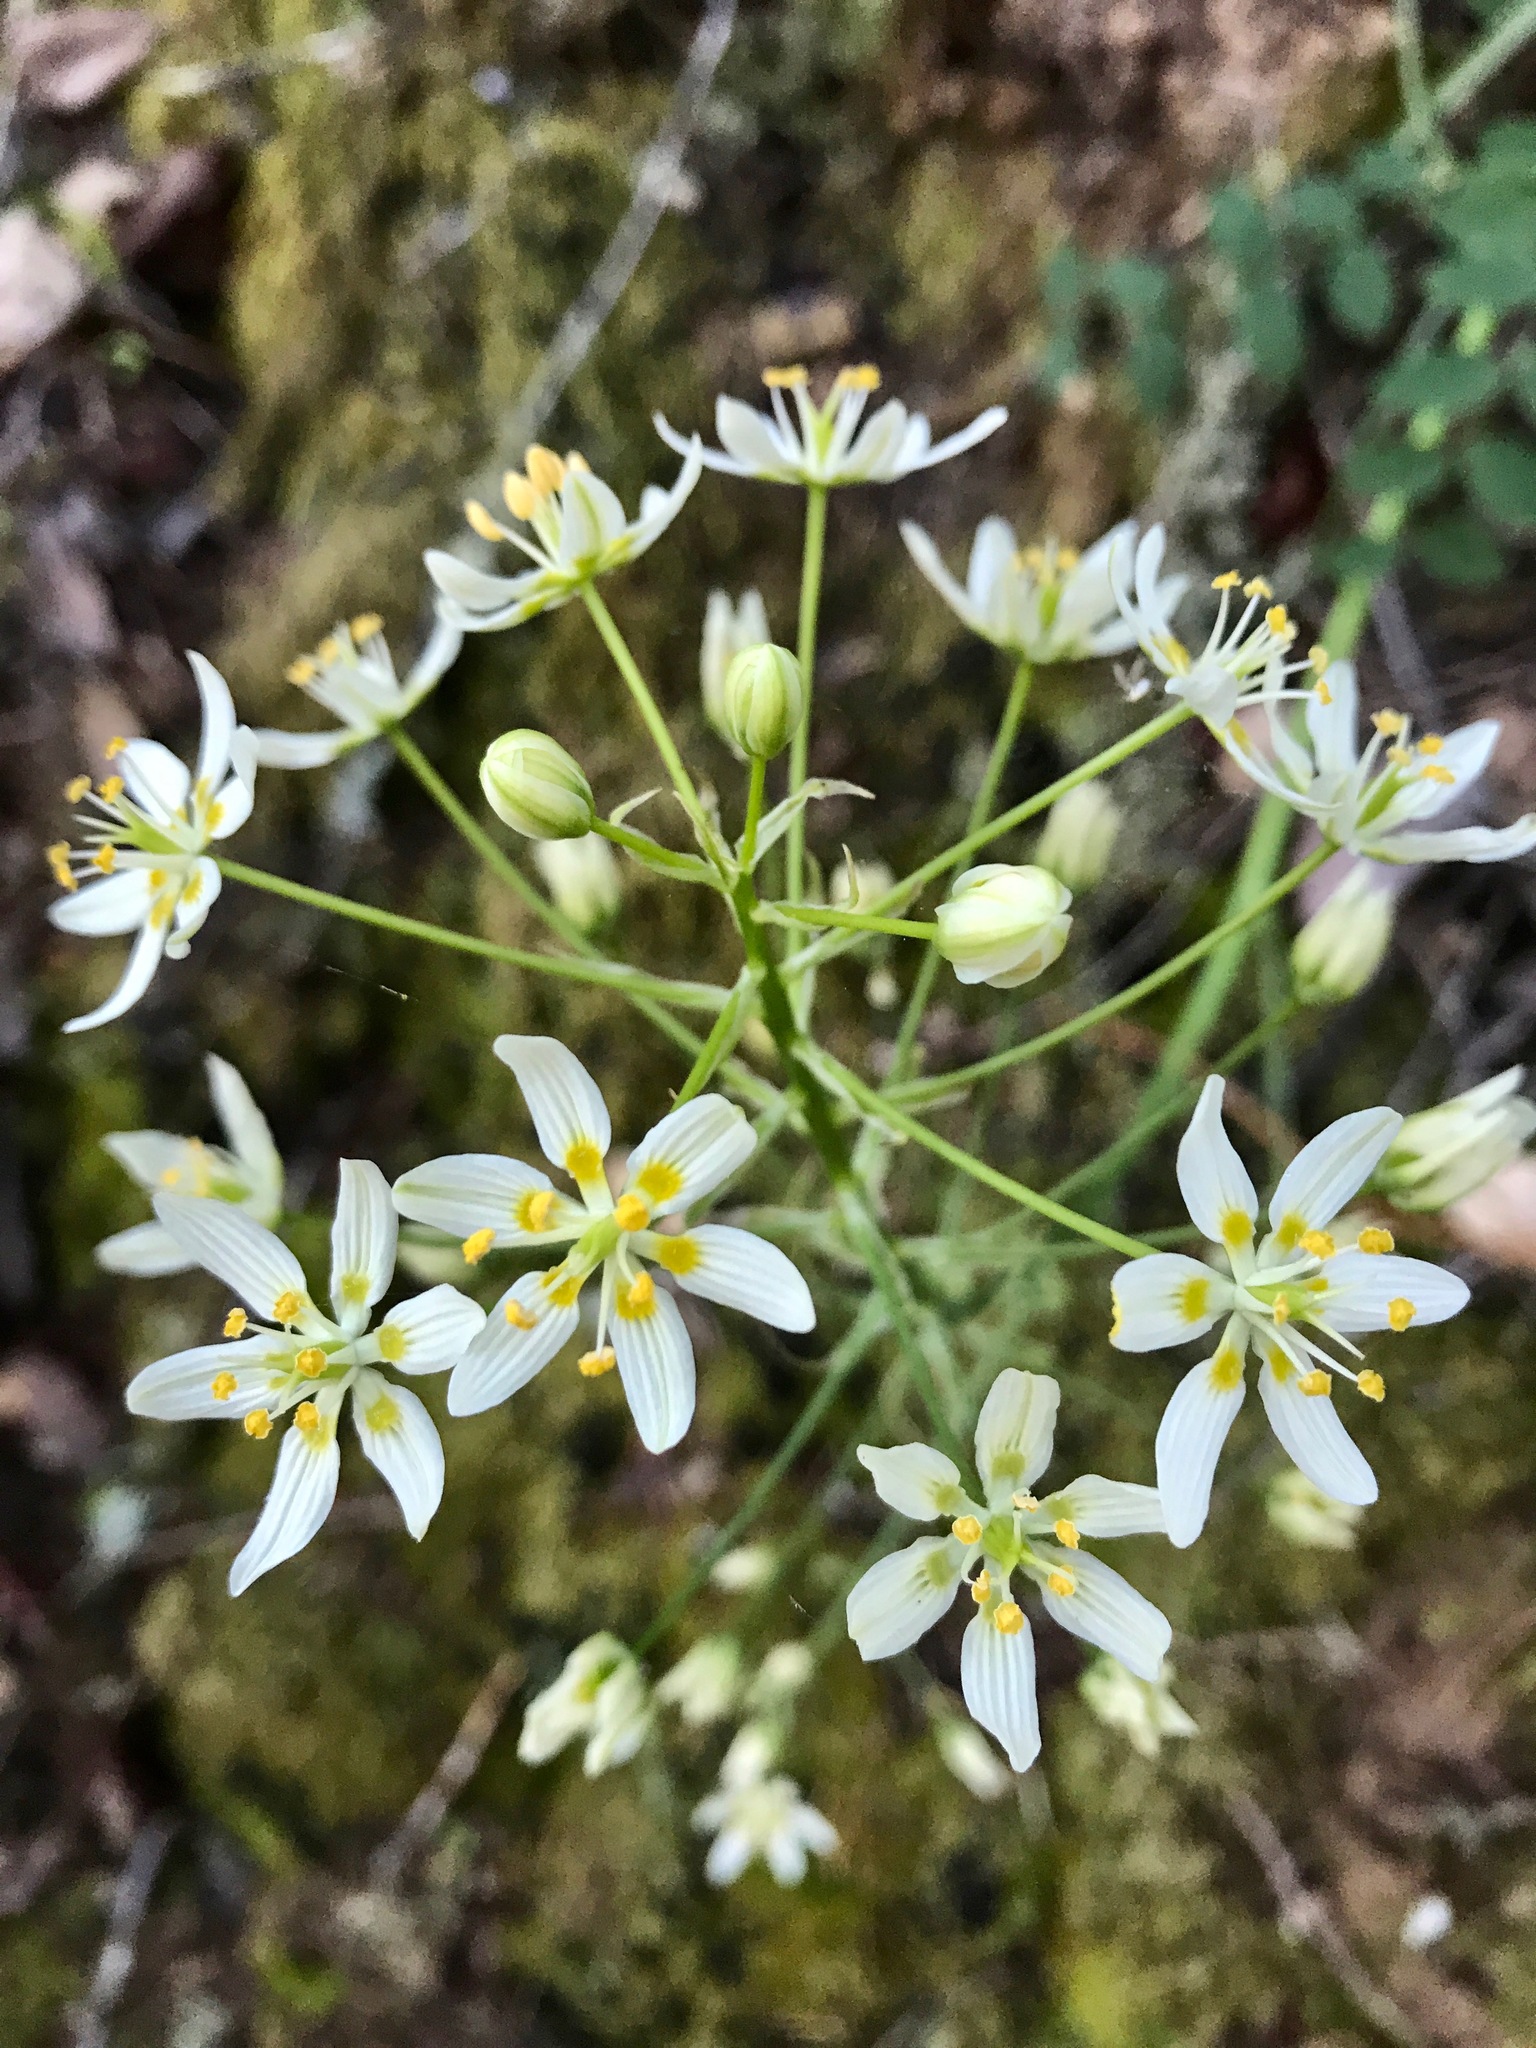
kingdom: Plantae
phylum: Tracheophyta
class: Liliopsida
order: Liliales
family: Melanthiaceae
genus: Toxicoscordion
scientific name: Toxicoscordion fremontii
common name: Fremont's death camas
